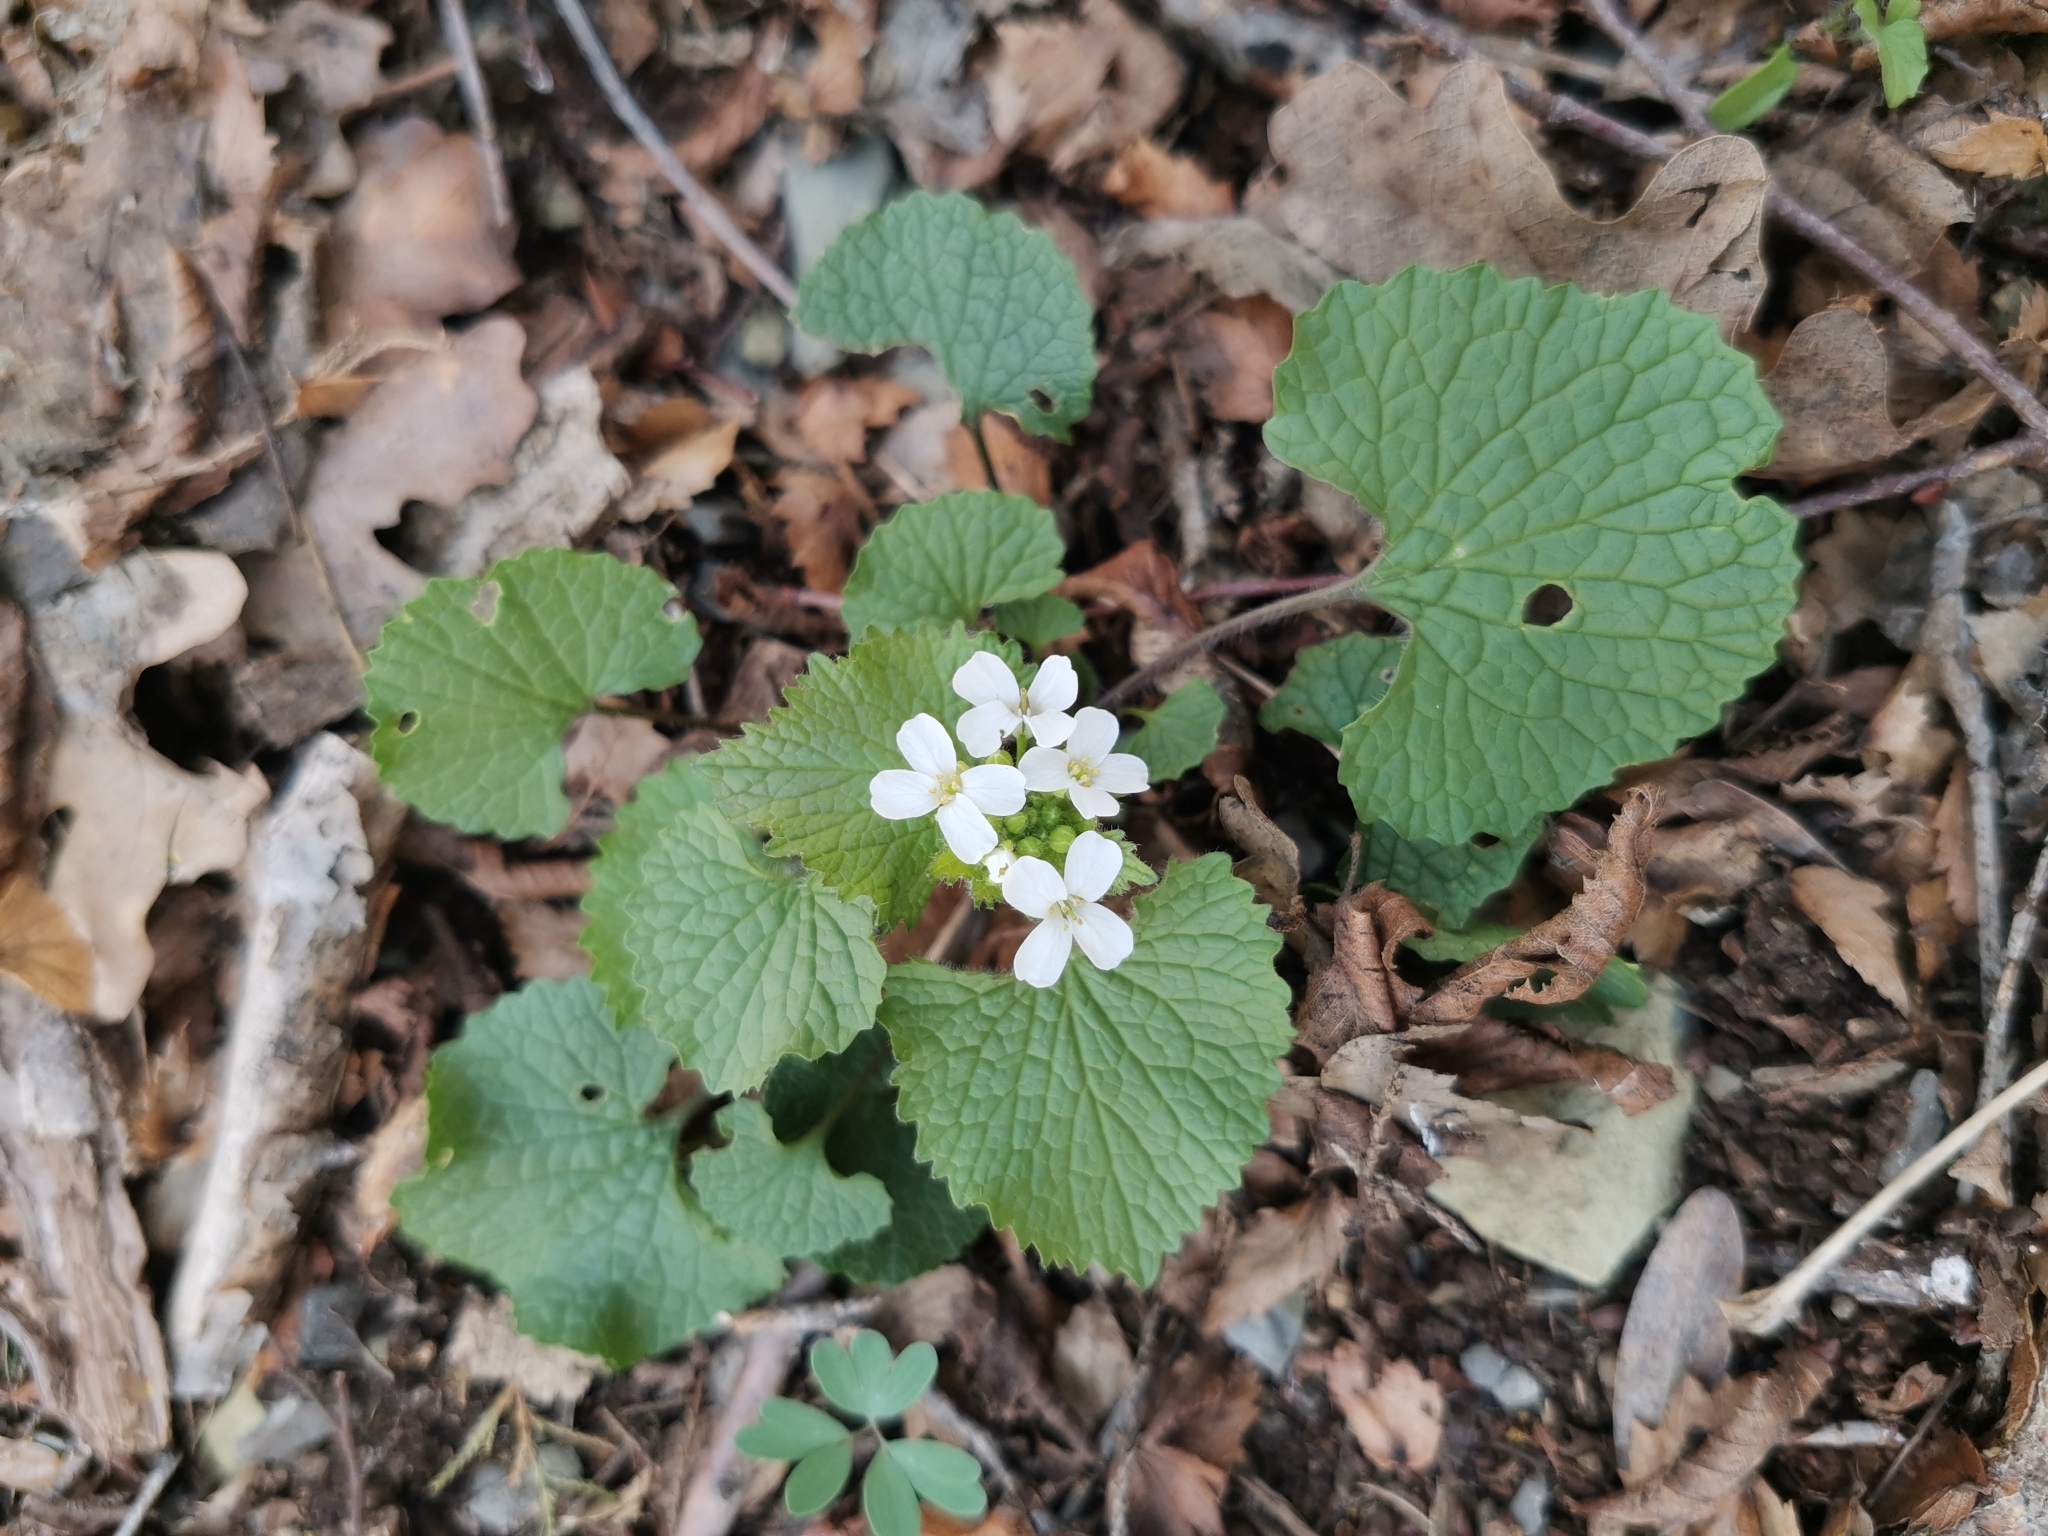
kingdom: Plantae
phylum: Tracheophyta
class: Magnoliopsida
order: Brassicales
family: Brassicaceae
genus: Alliaria
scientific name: Alliaria petiolata
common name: Garlic mustard
